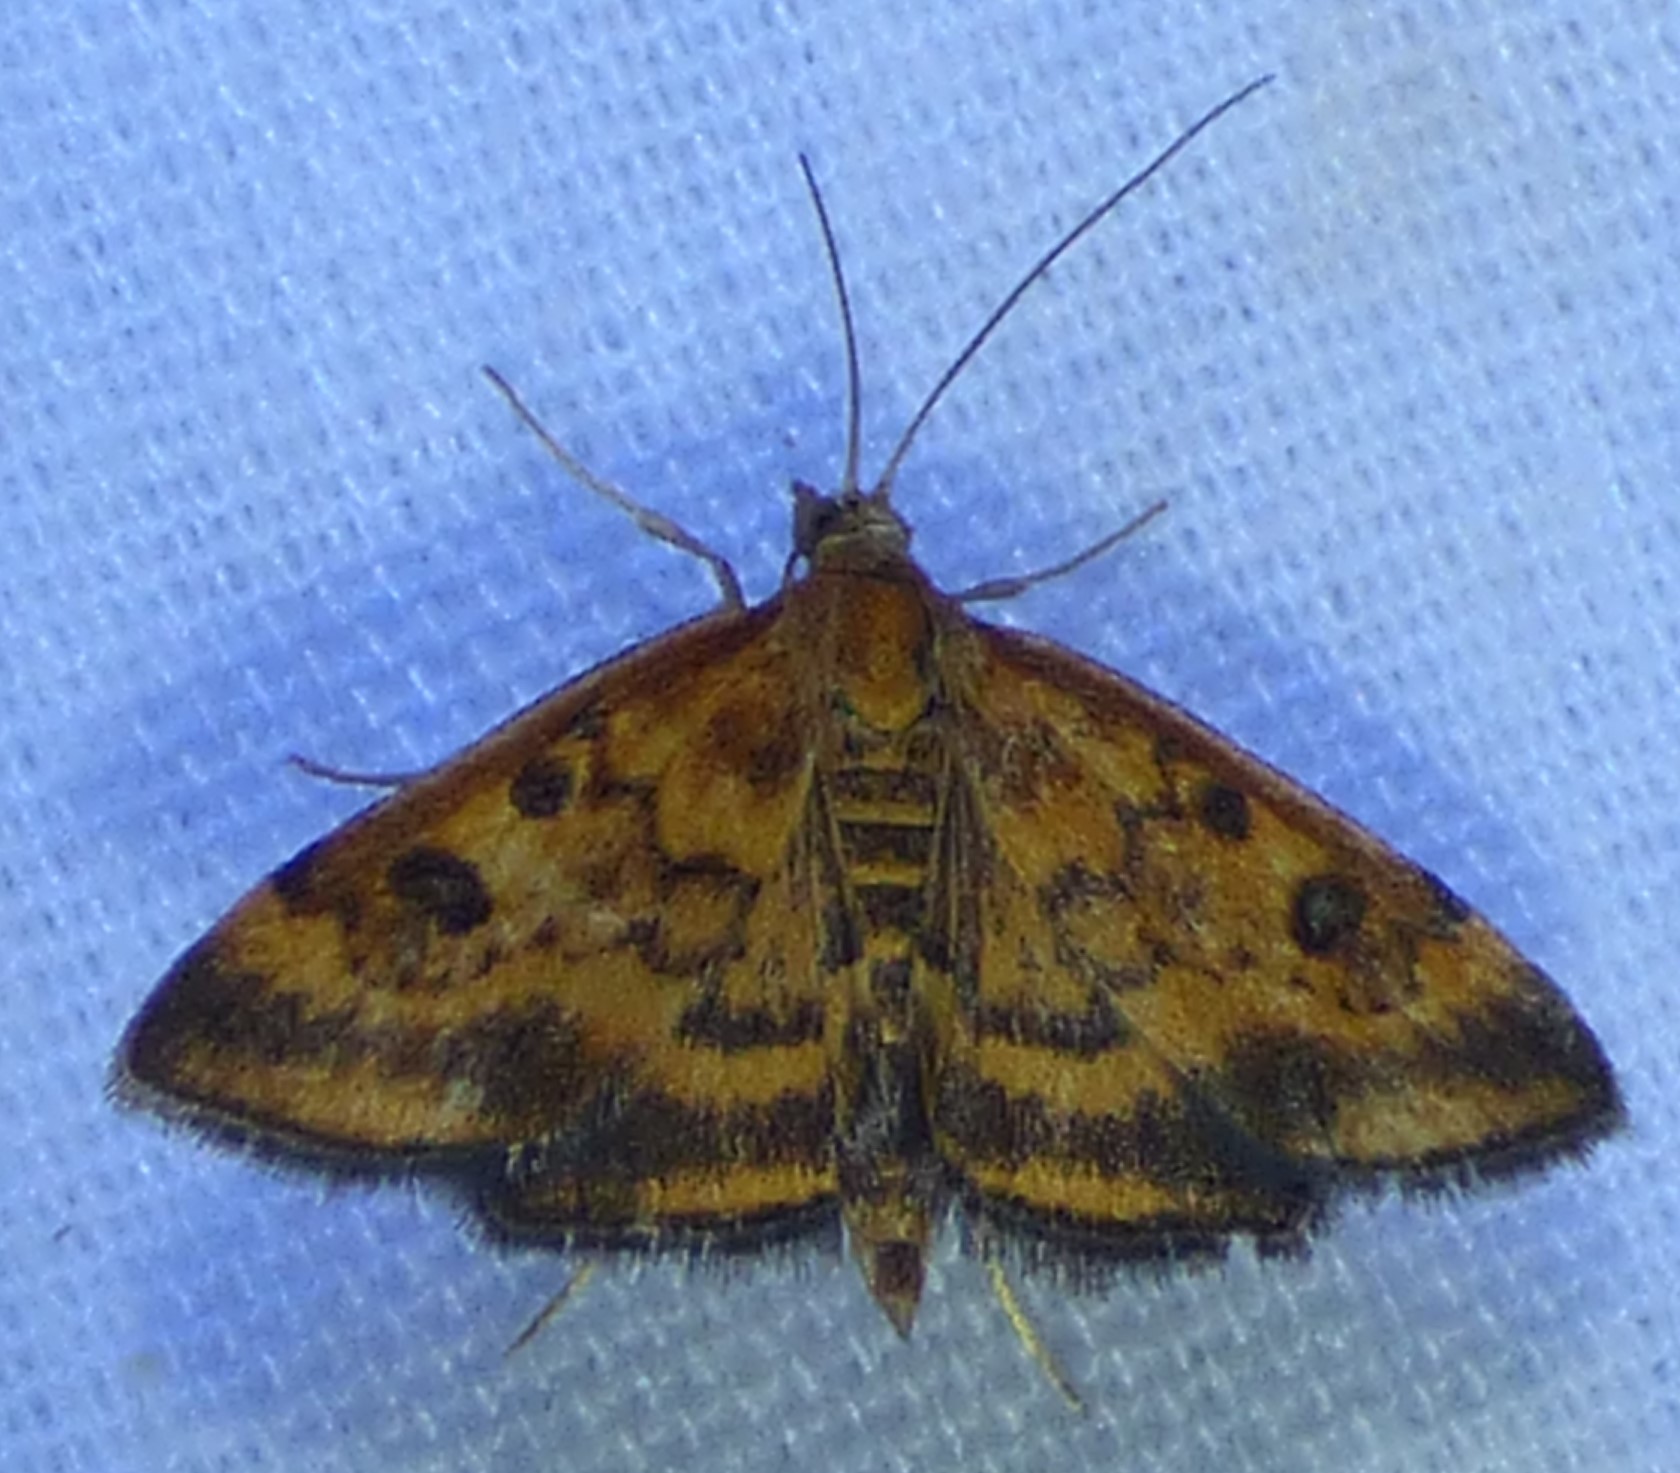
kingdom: Animalia
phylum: Arthropoda
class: Insecta
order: Lepidoptera
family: Crambidae
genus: Pyrausta
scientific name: Pyrausta subsequalis
